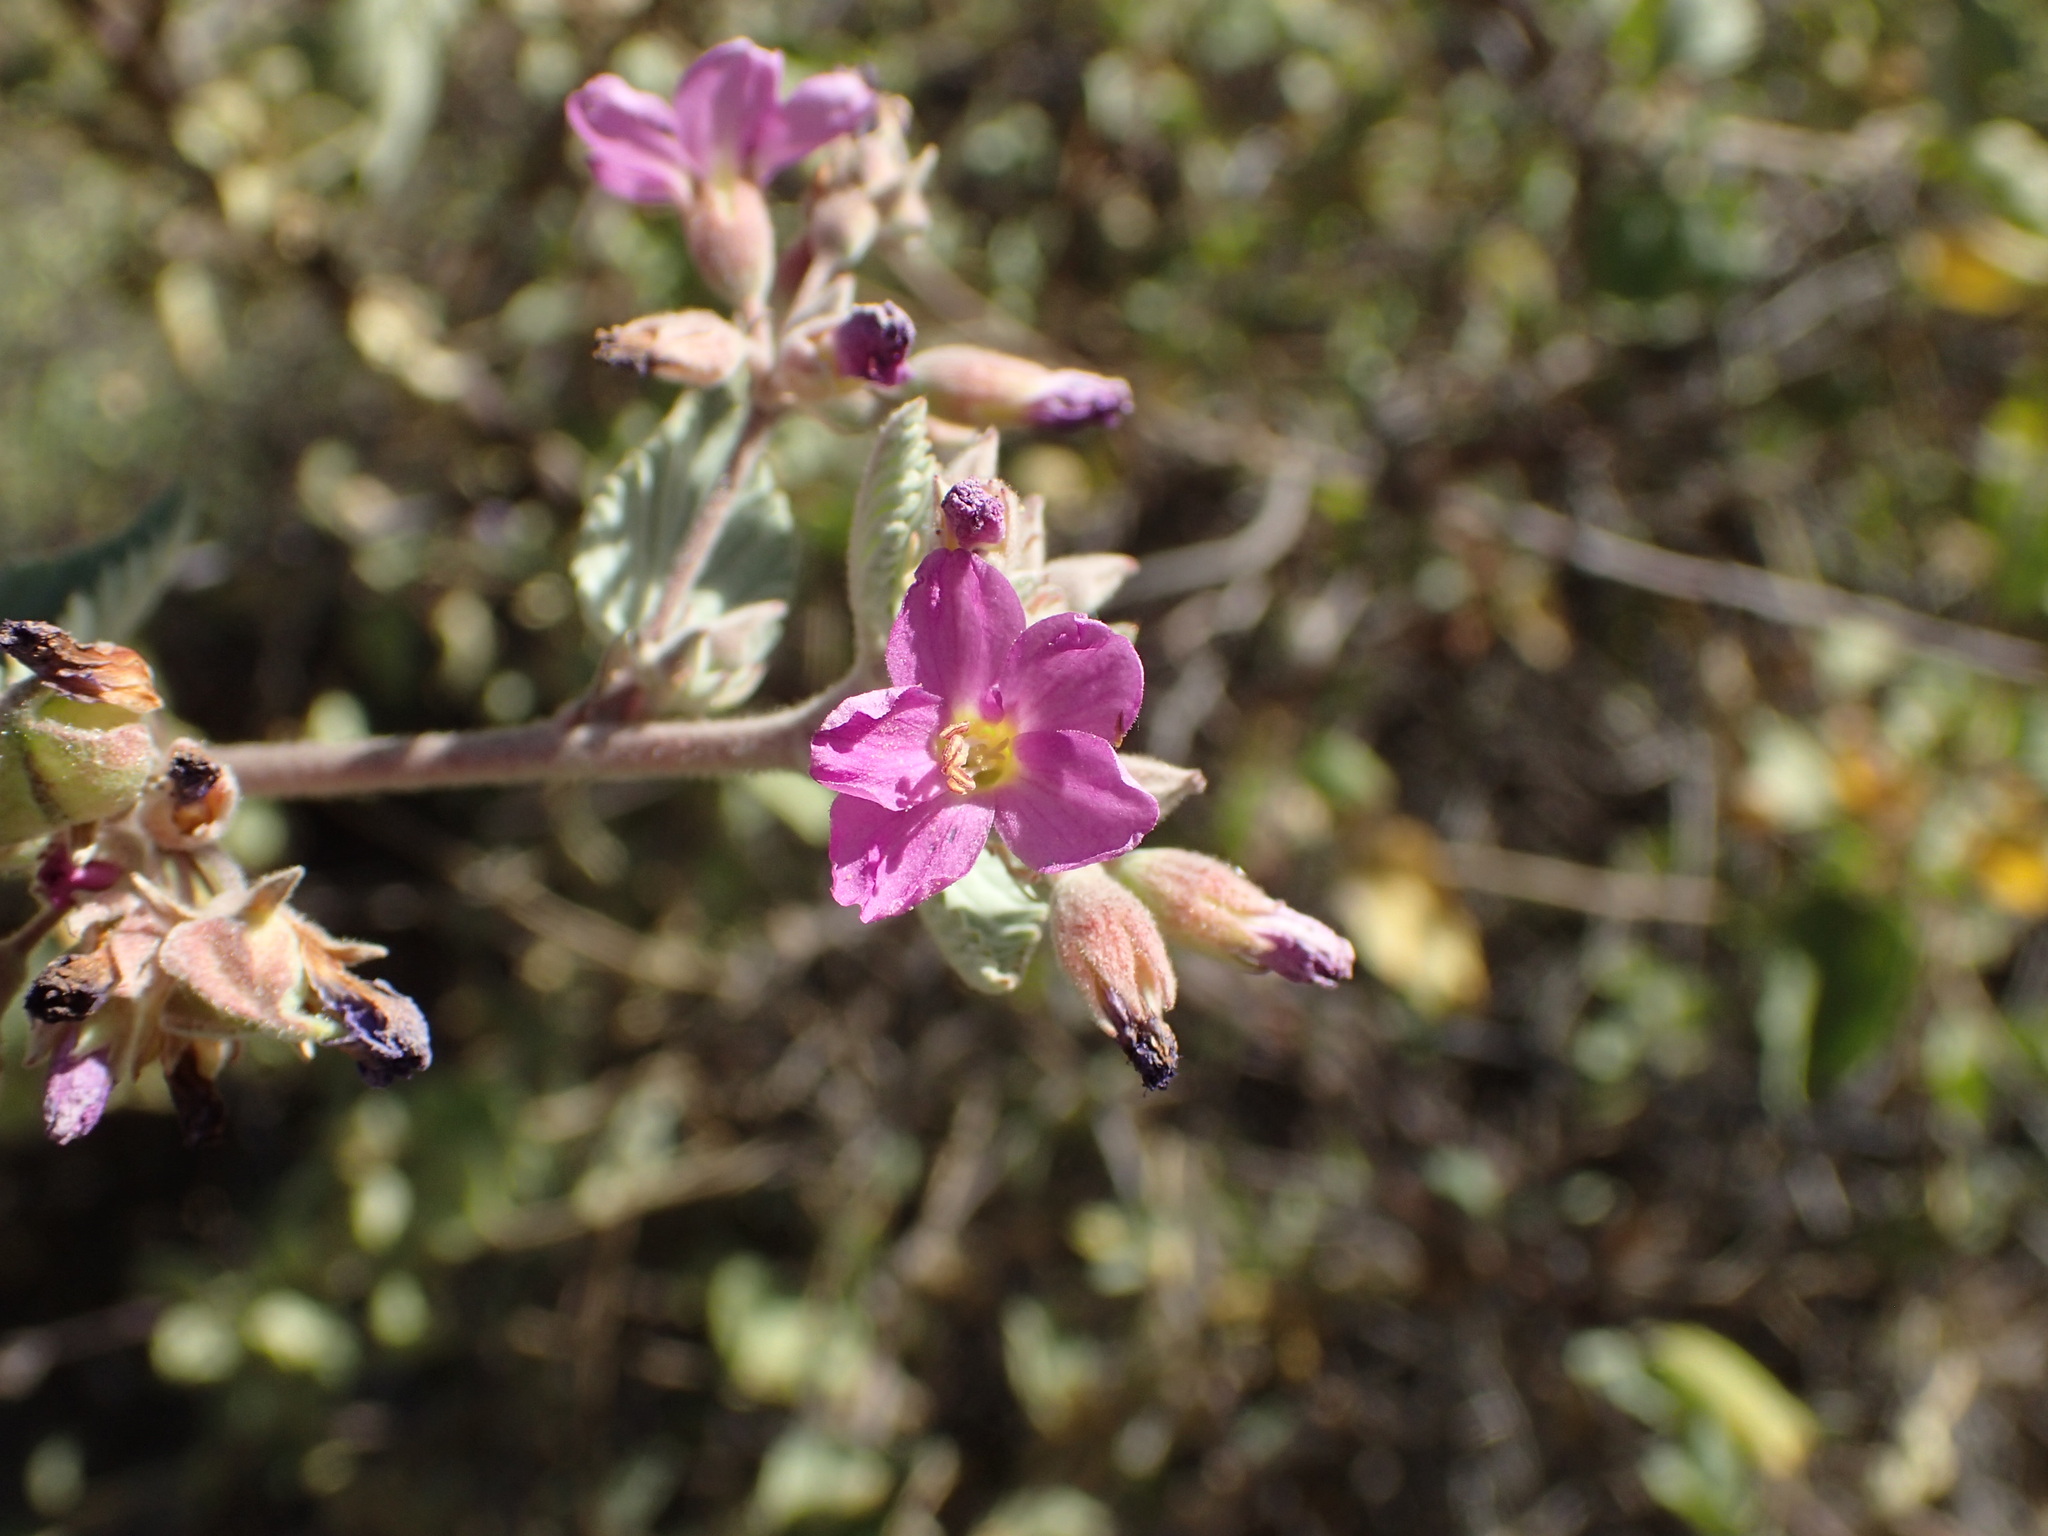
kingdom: Plantae
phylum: Tracheophyta
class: Magnoliopsida
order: Malvales
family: Malvaceae
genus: Melochia
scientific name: Melochia tomentosa
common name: Black torch
